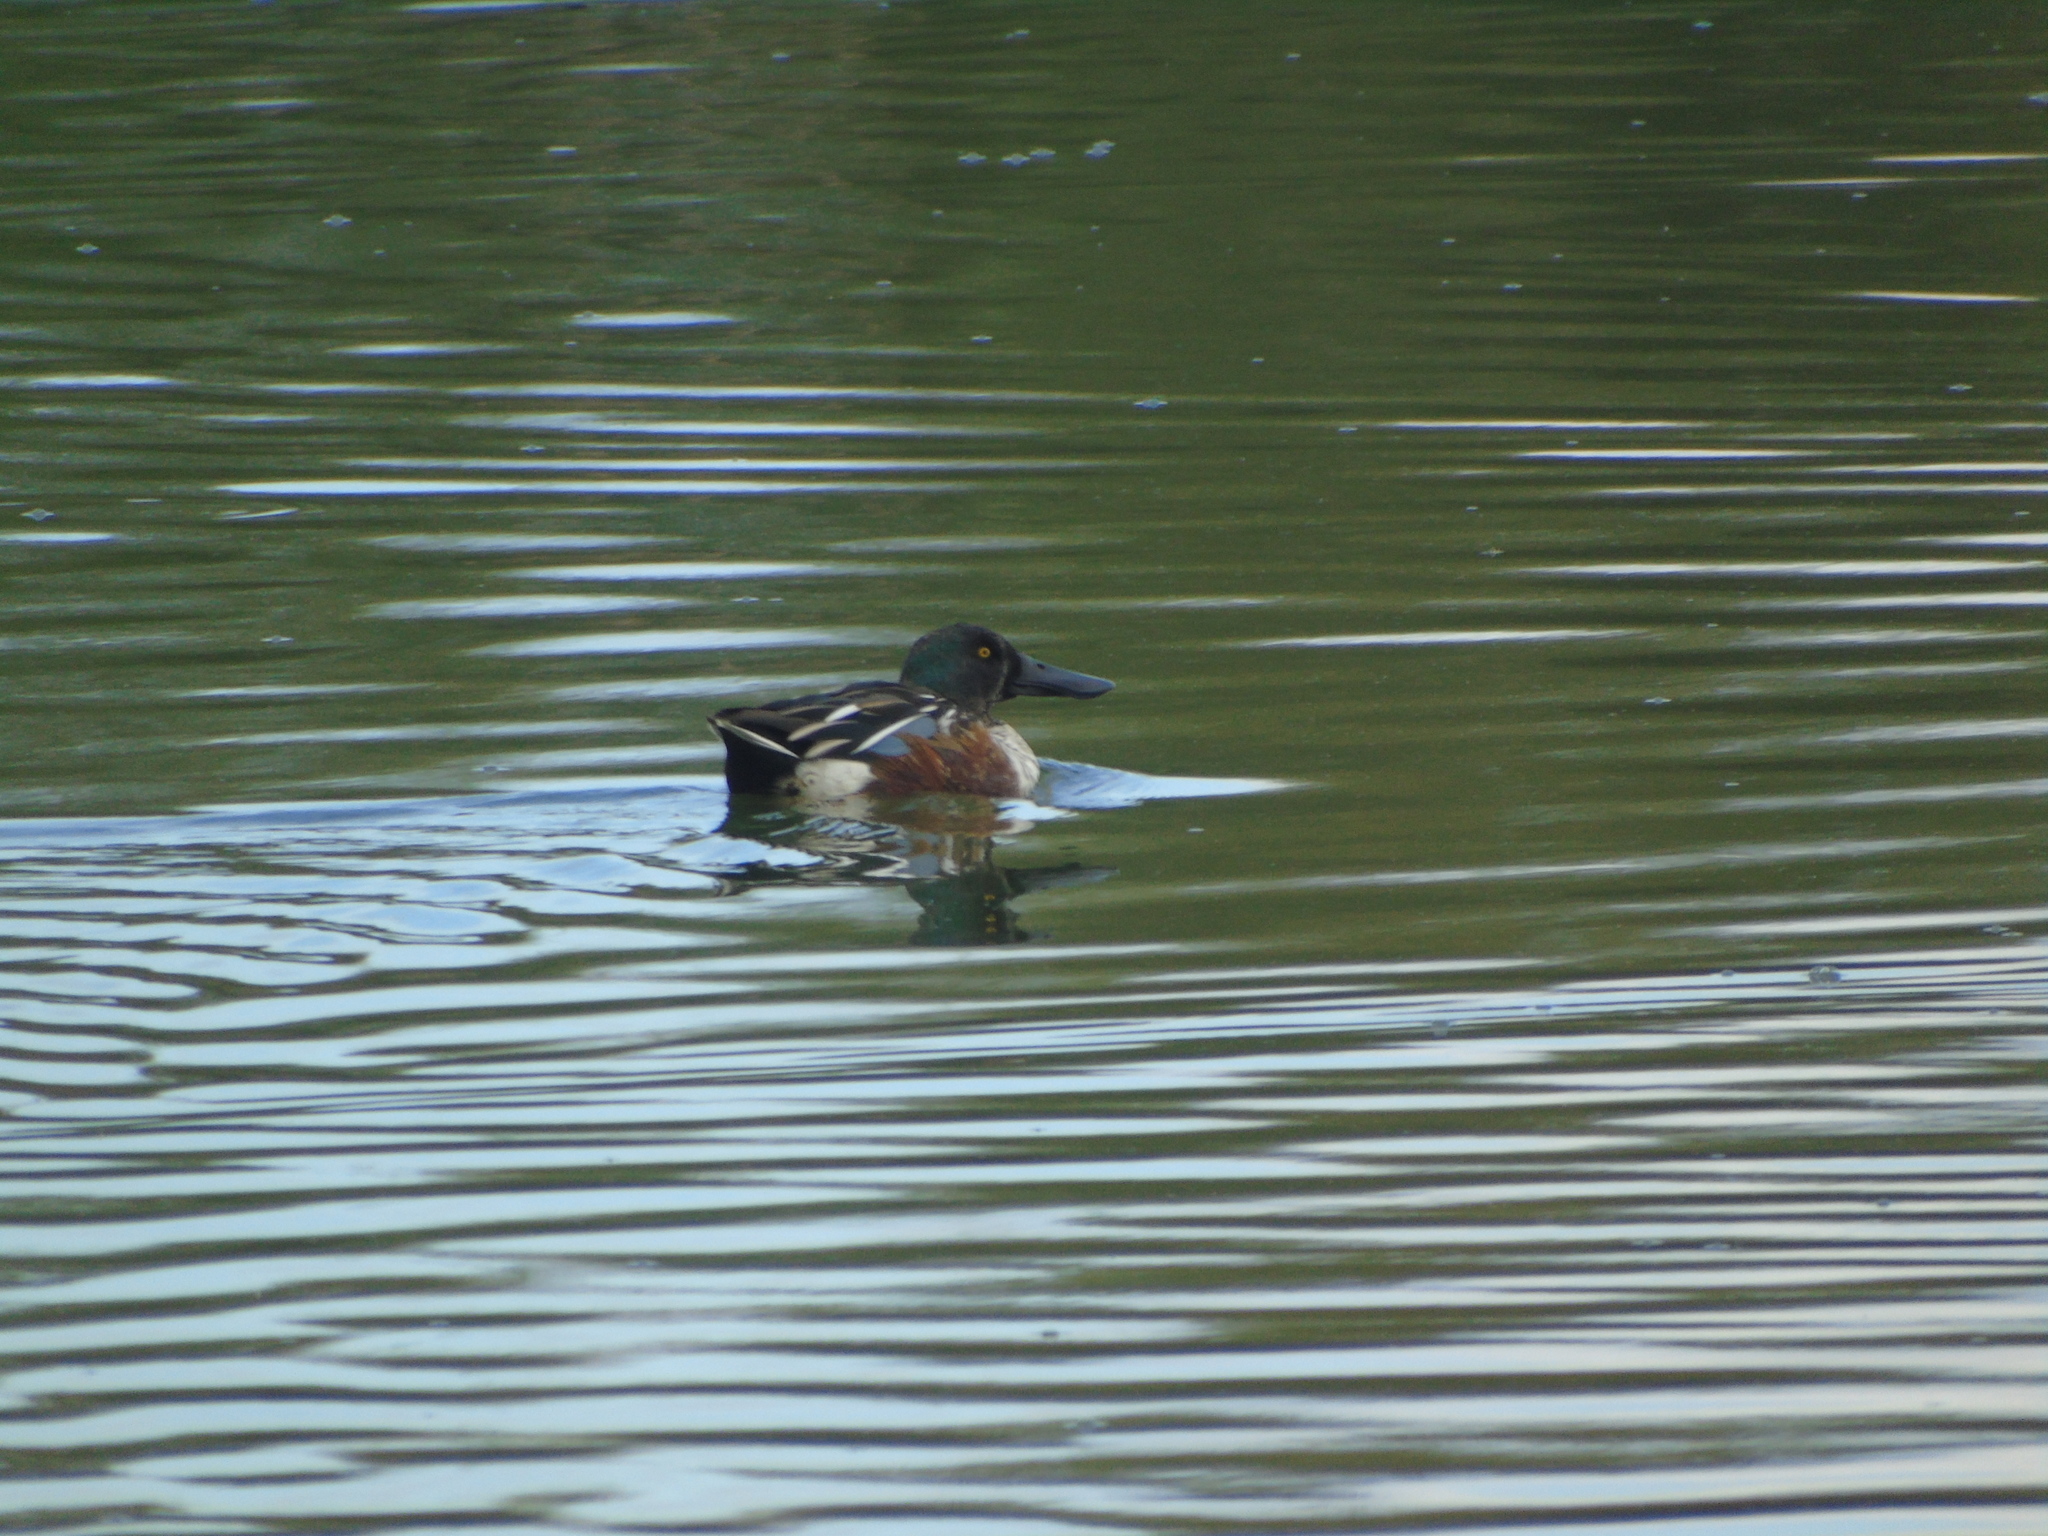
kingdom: Animalia
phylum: Chordata
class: Aves
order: Anseriformes
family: Anatidae
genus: Spatula
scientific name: Spatula clypeata
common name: Northern shoveler
